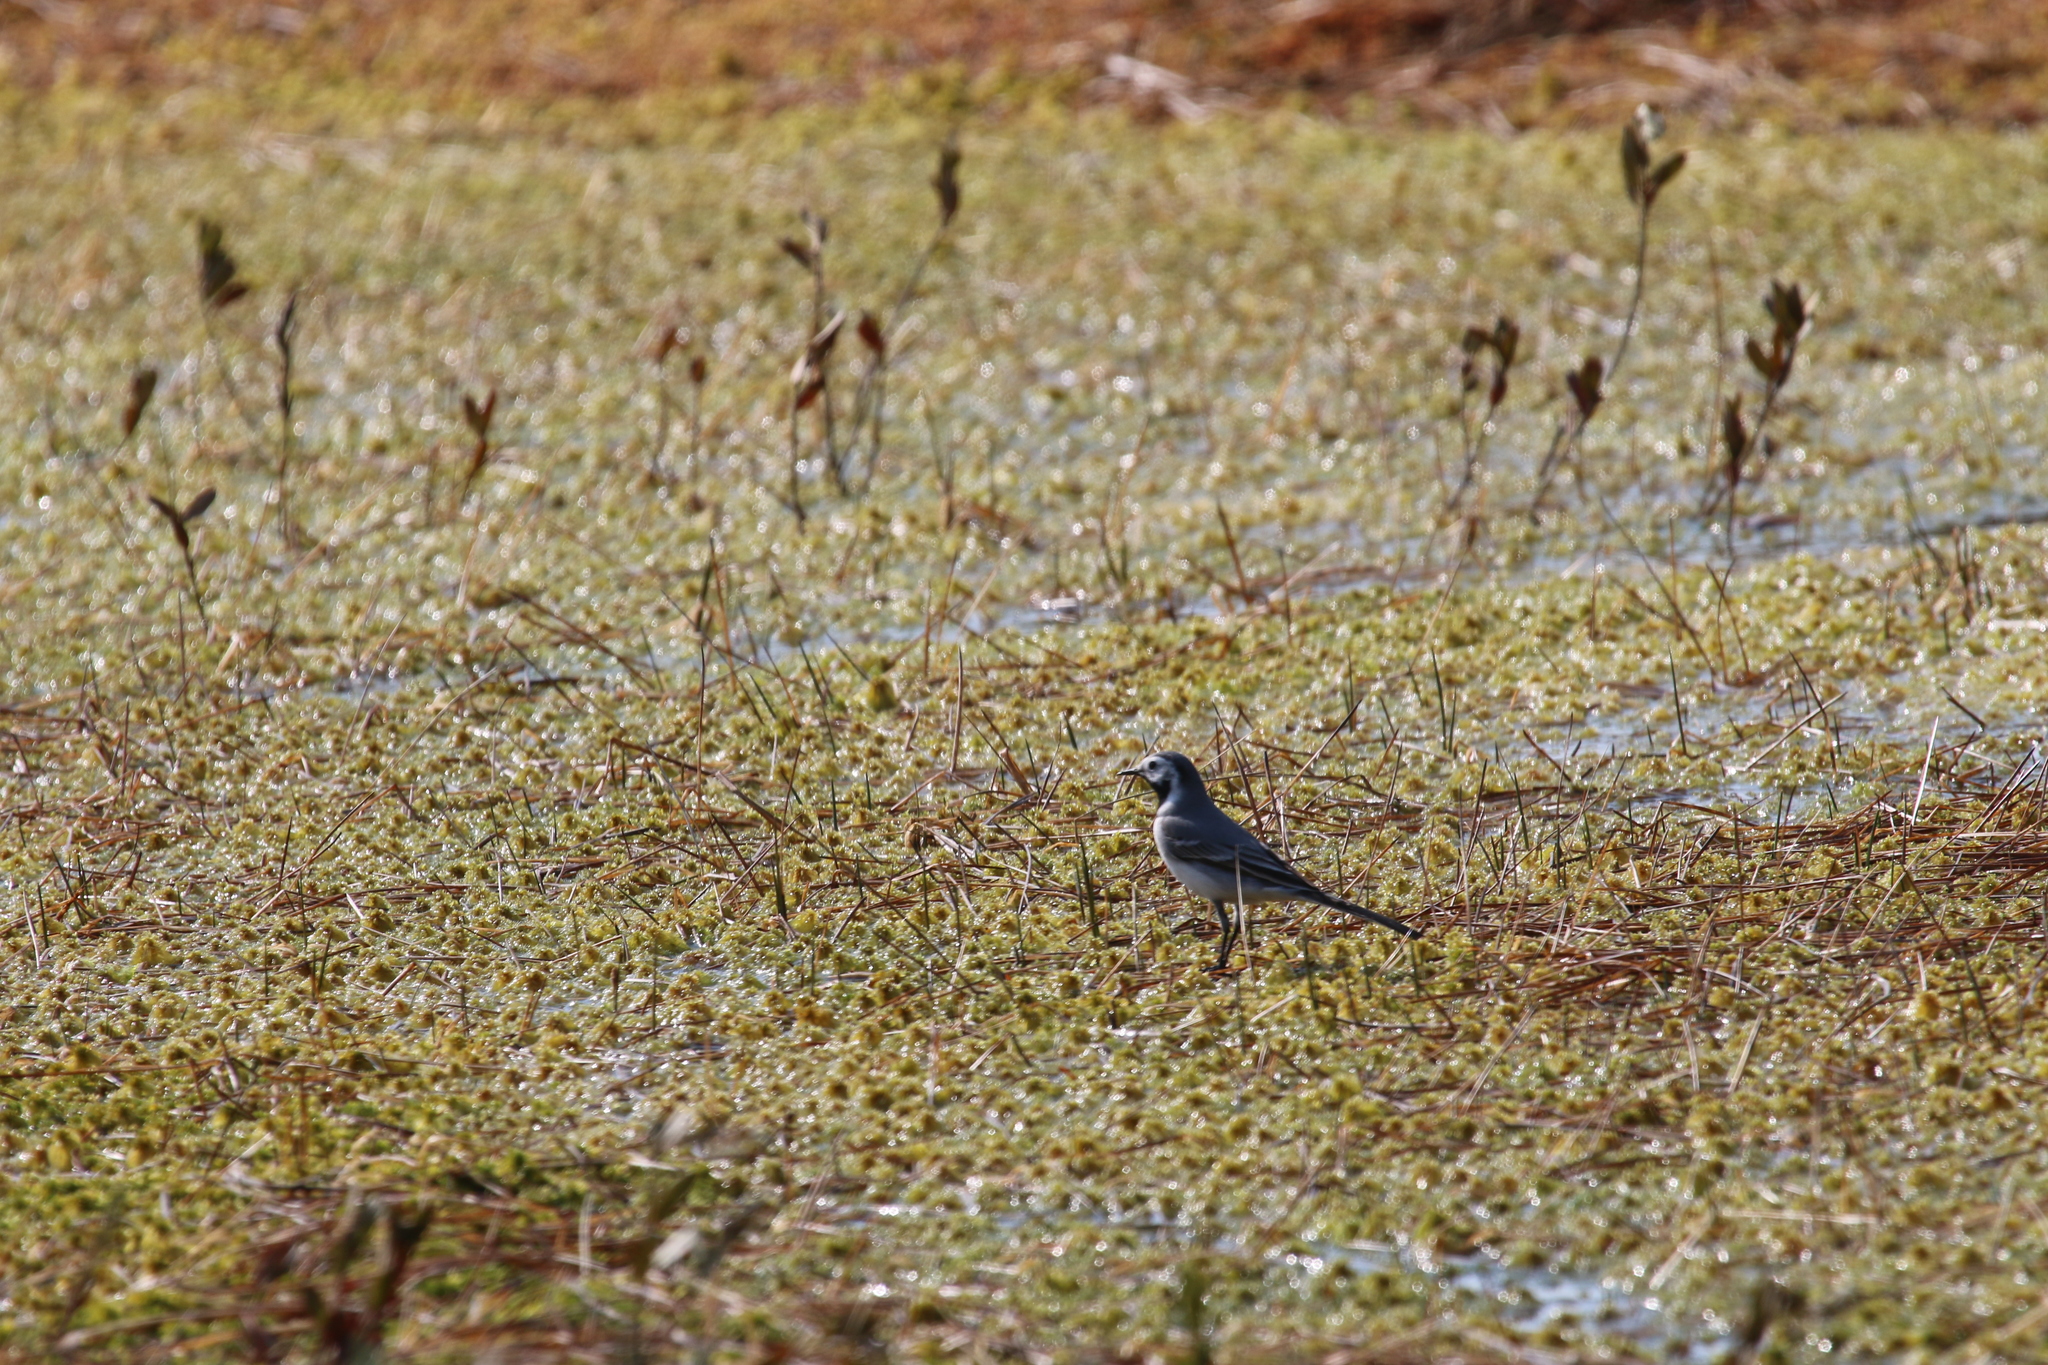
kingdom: Animalia
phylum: Chordata
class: Aves
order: Passeriformes
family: Motacillidae
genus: Motacilla
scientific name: Motacilla alba
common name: White wagtail
